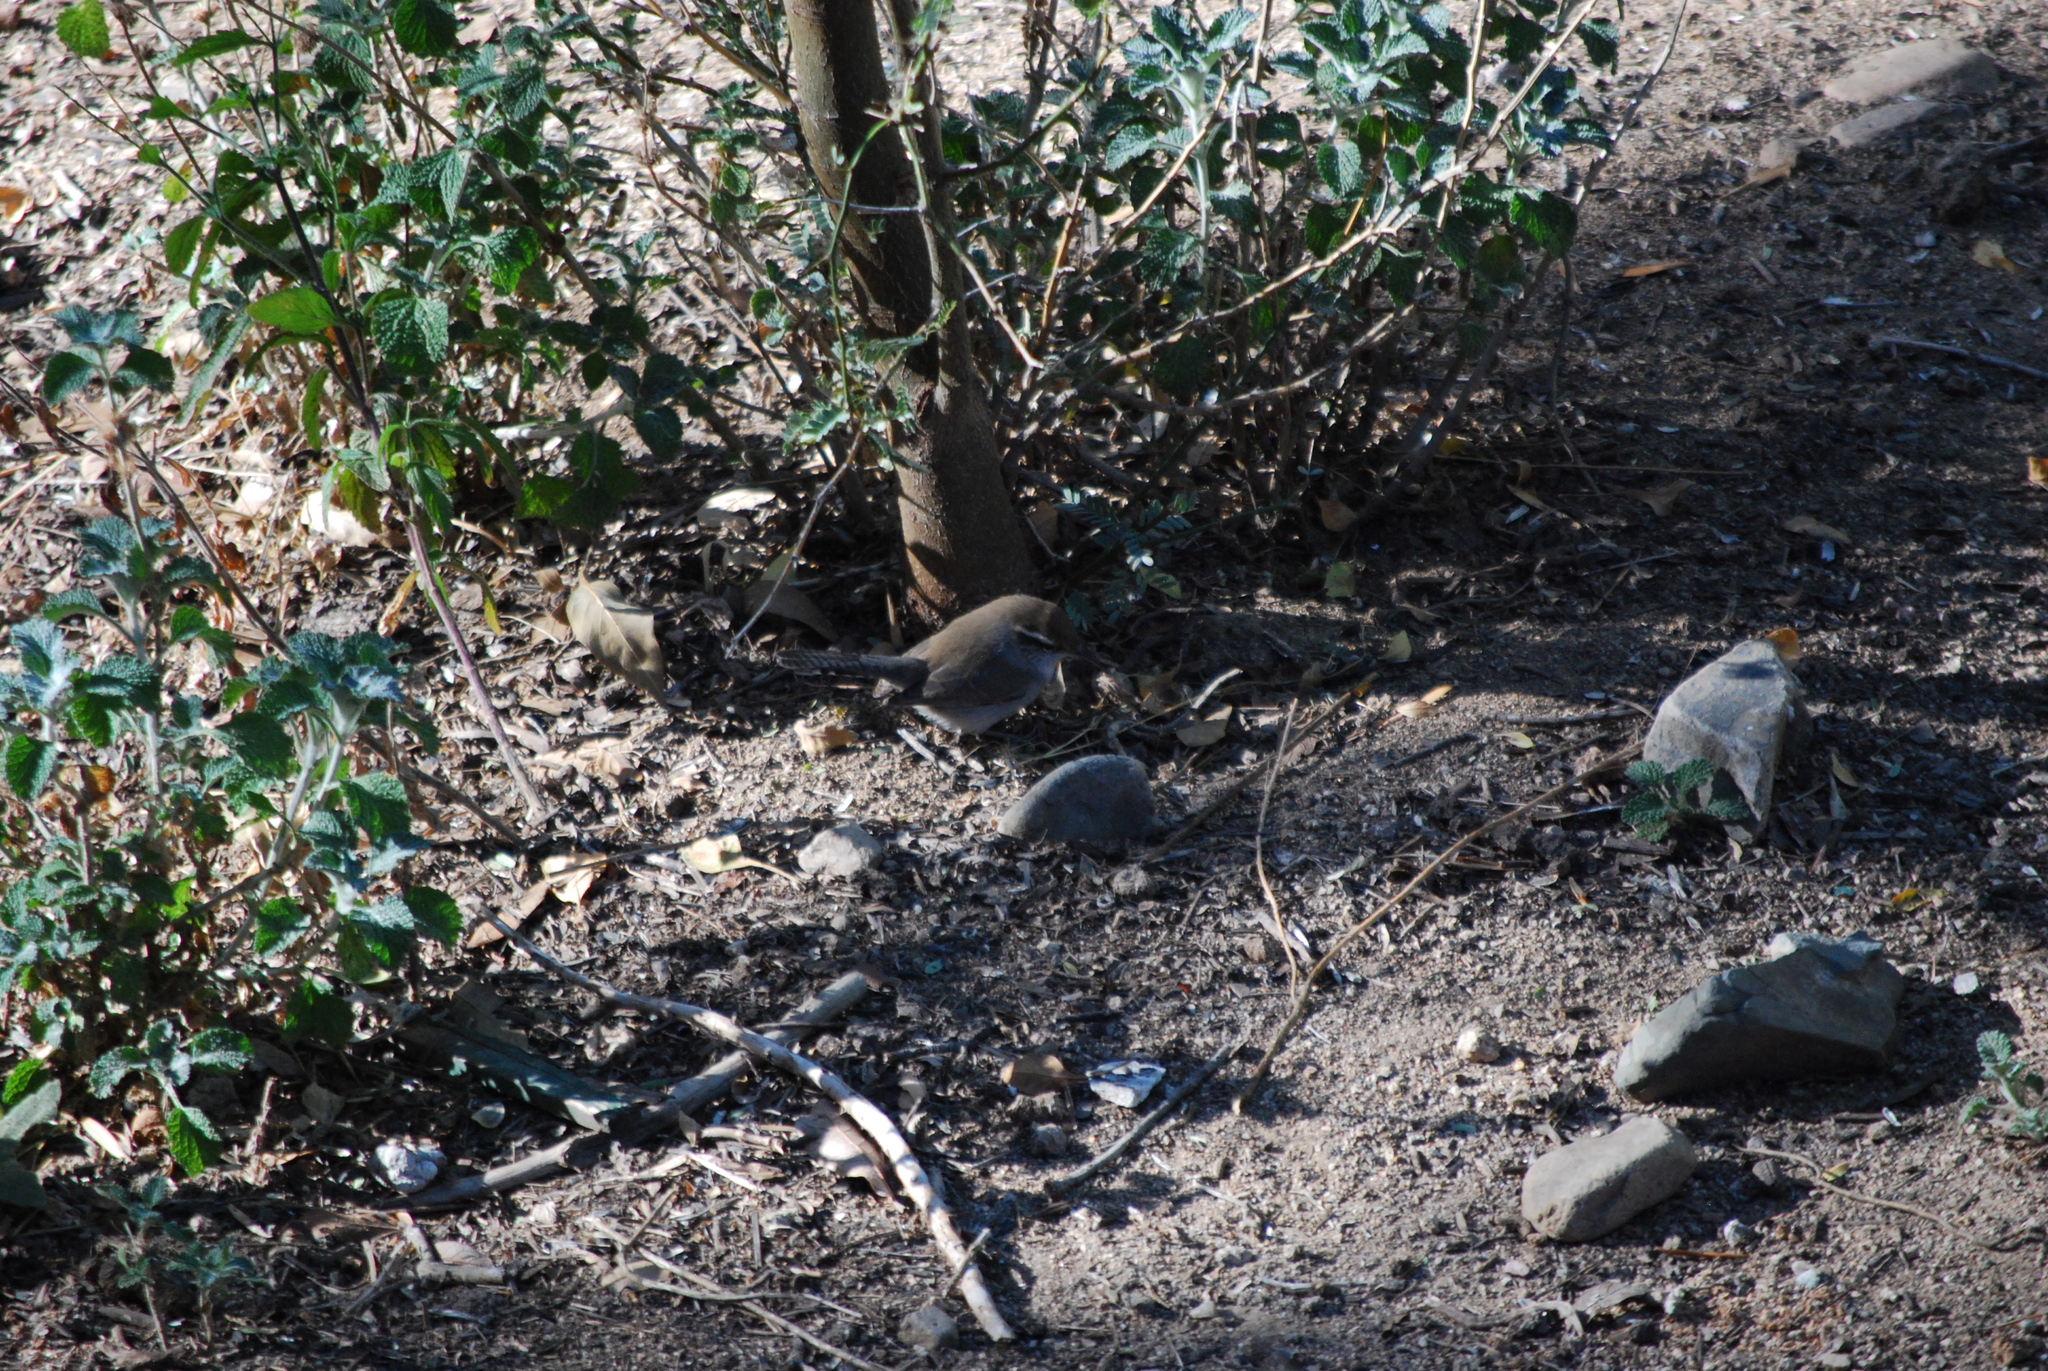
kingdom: Animalia
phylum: Chordata
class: Aves
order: Passeriformes
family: Troglodytidae
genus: Thryomanes
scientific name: Thryomanes bewickii
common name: Bewick's wren
